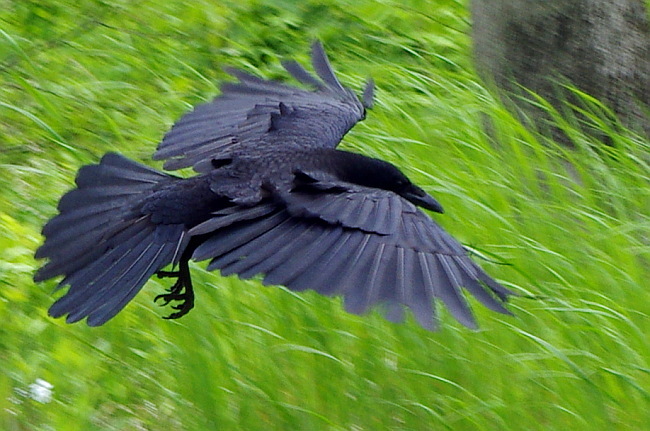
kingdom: Animalia
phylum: Chordata
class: Aves
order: Passeriformes
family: Corvidae
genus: Corvus
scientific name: Corvus corone
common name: Carrion crow
